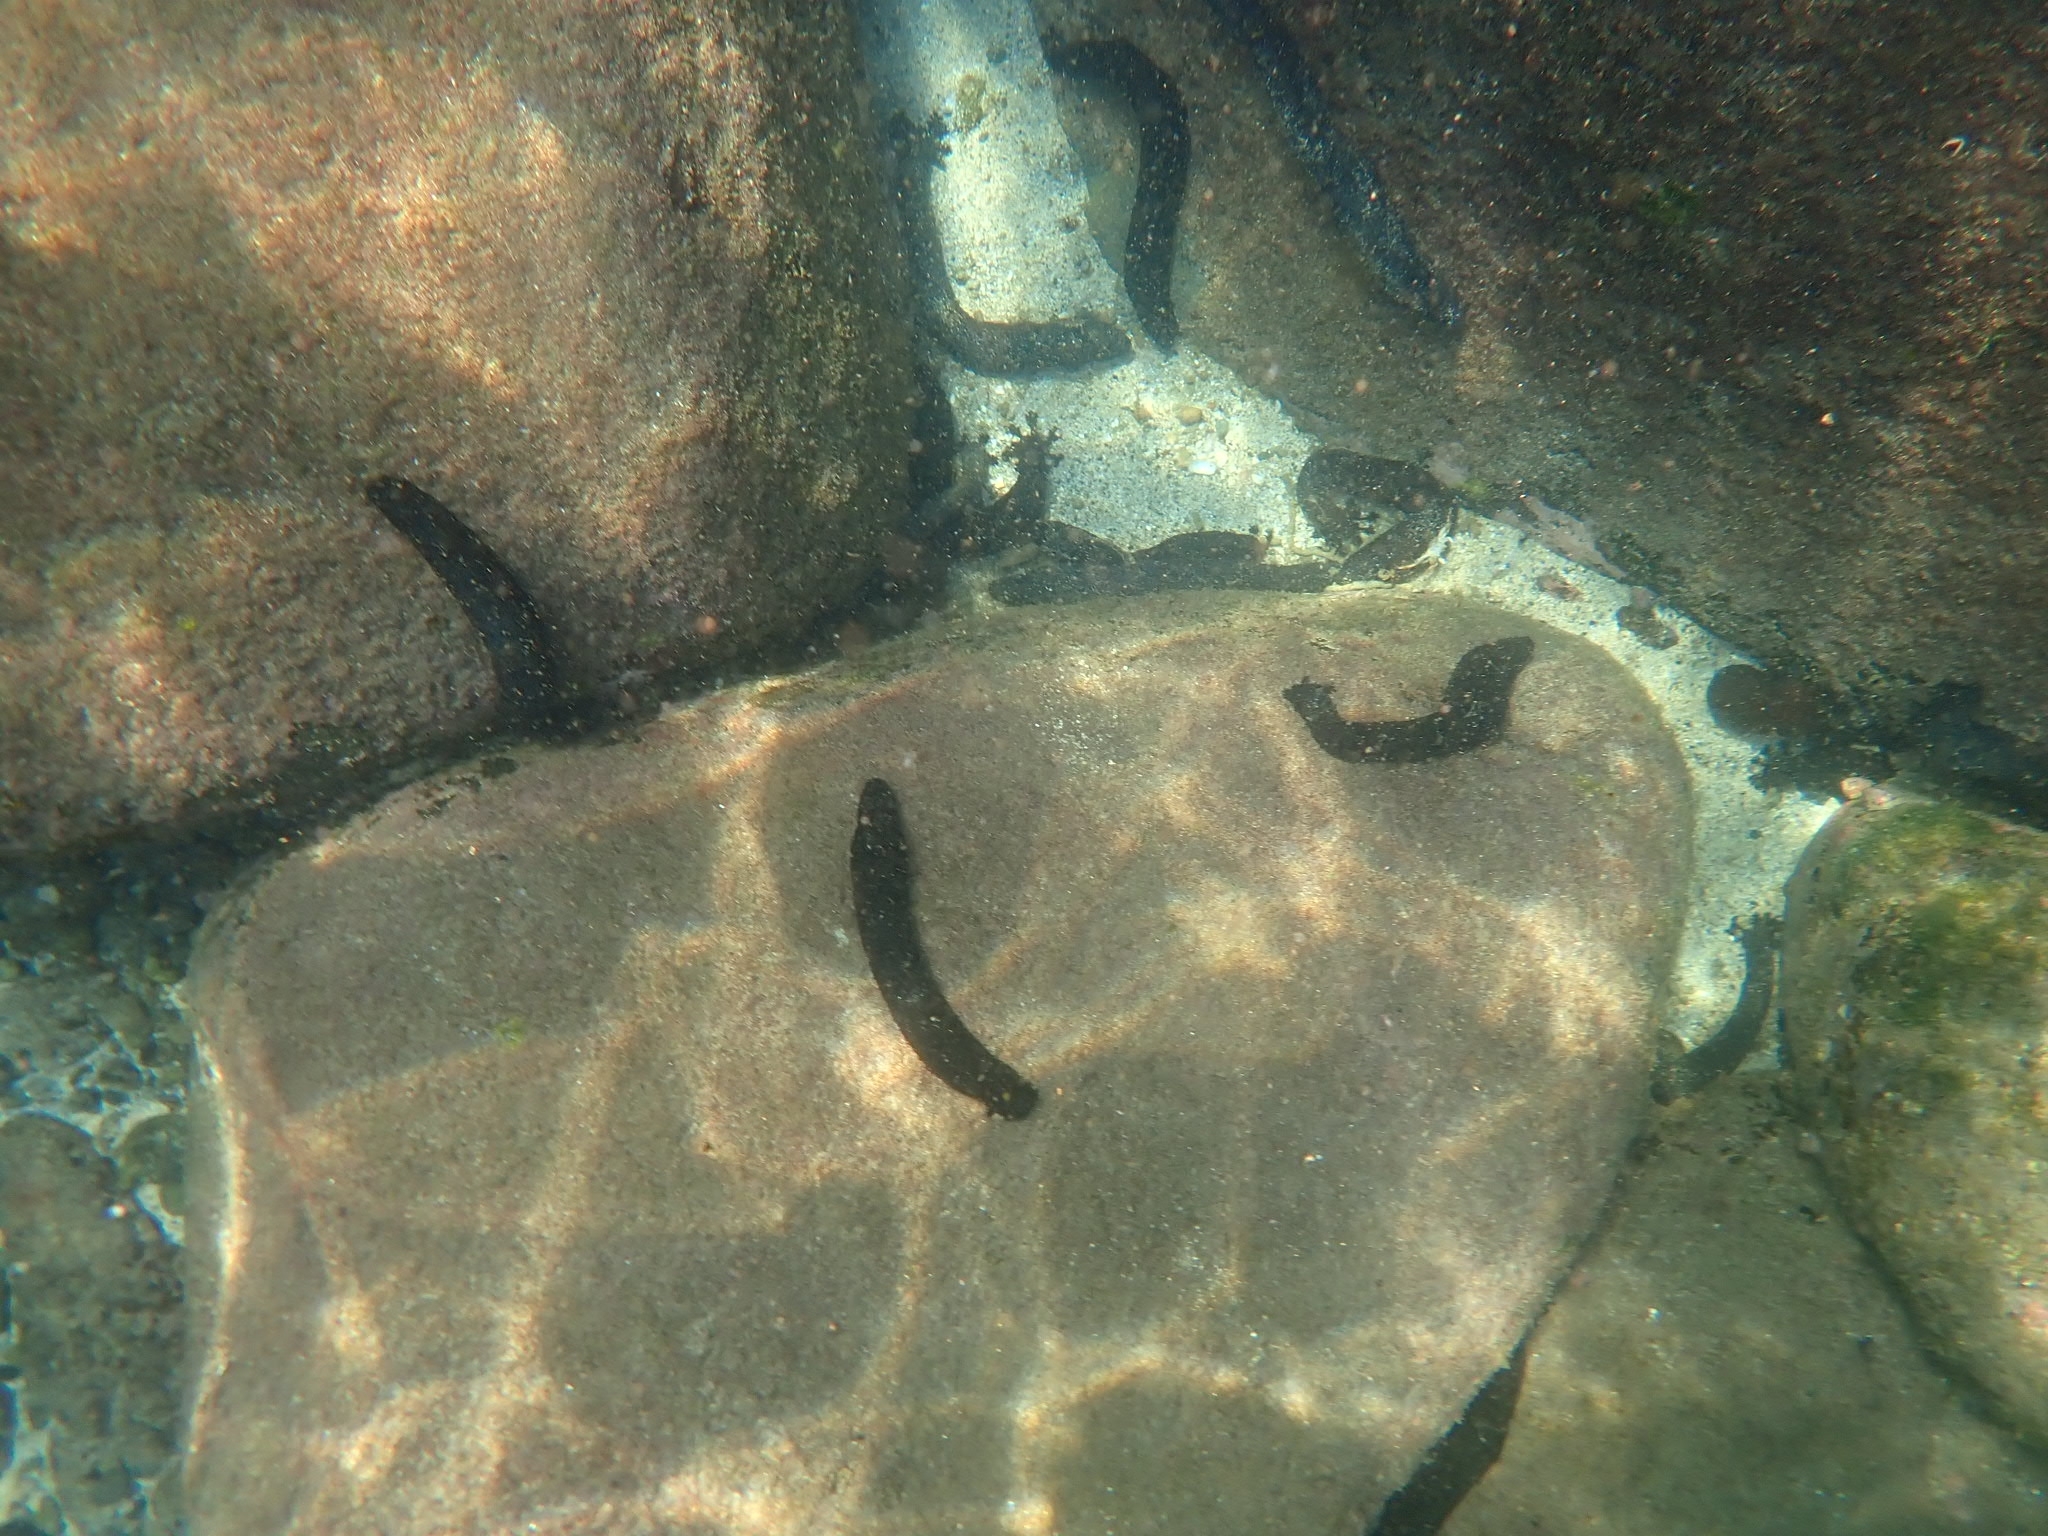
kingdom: Animalia
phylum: Echinodermata
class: Holothuroidea
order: Holothuriida
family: Holothuriidae
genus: Holothuria
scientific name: Holothuria leucospilota
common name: White thread fish
